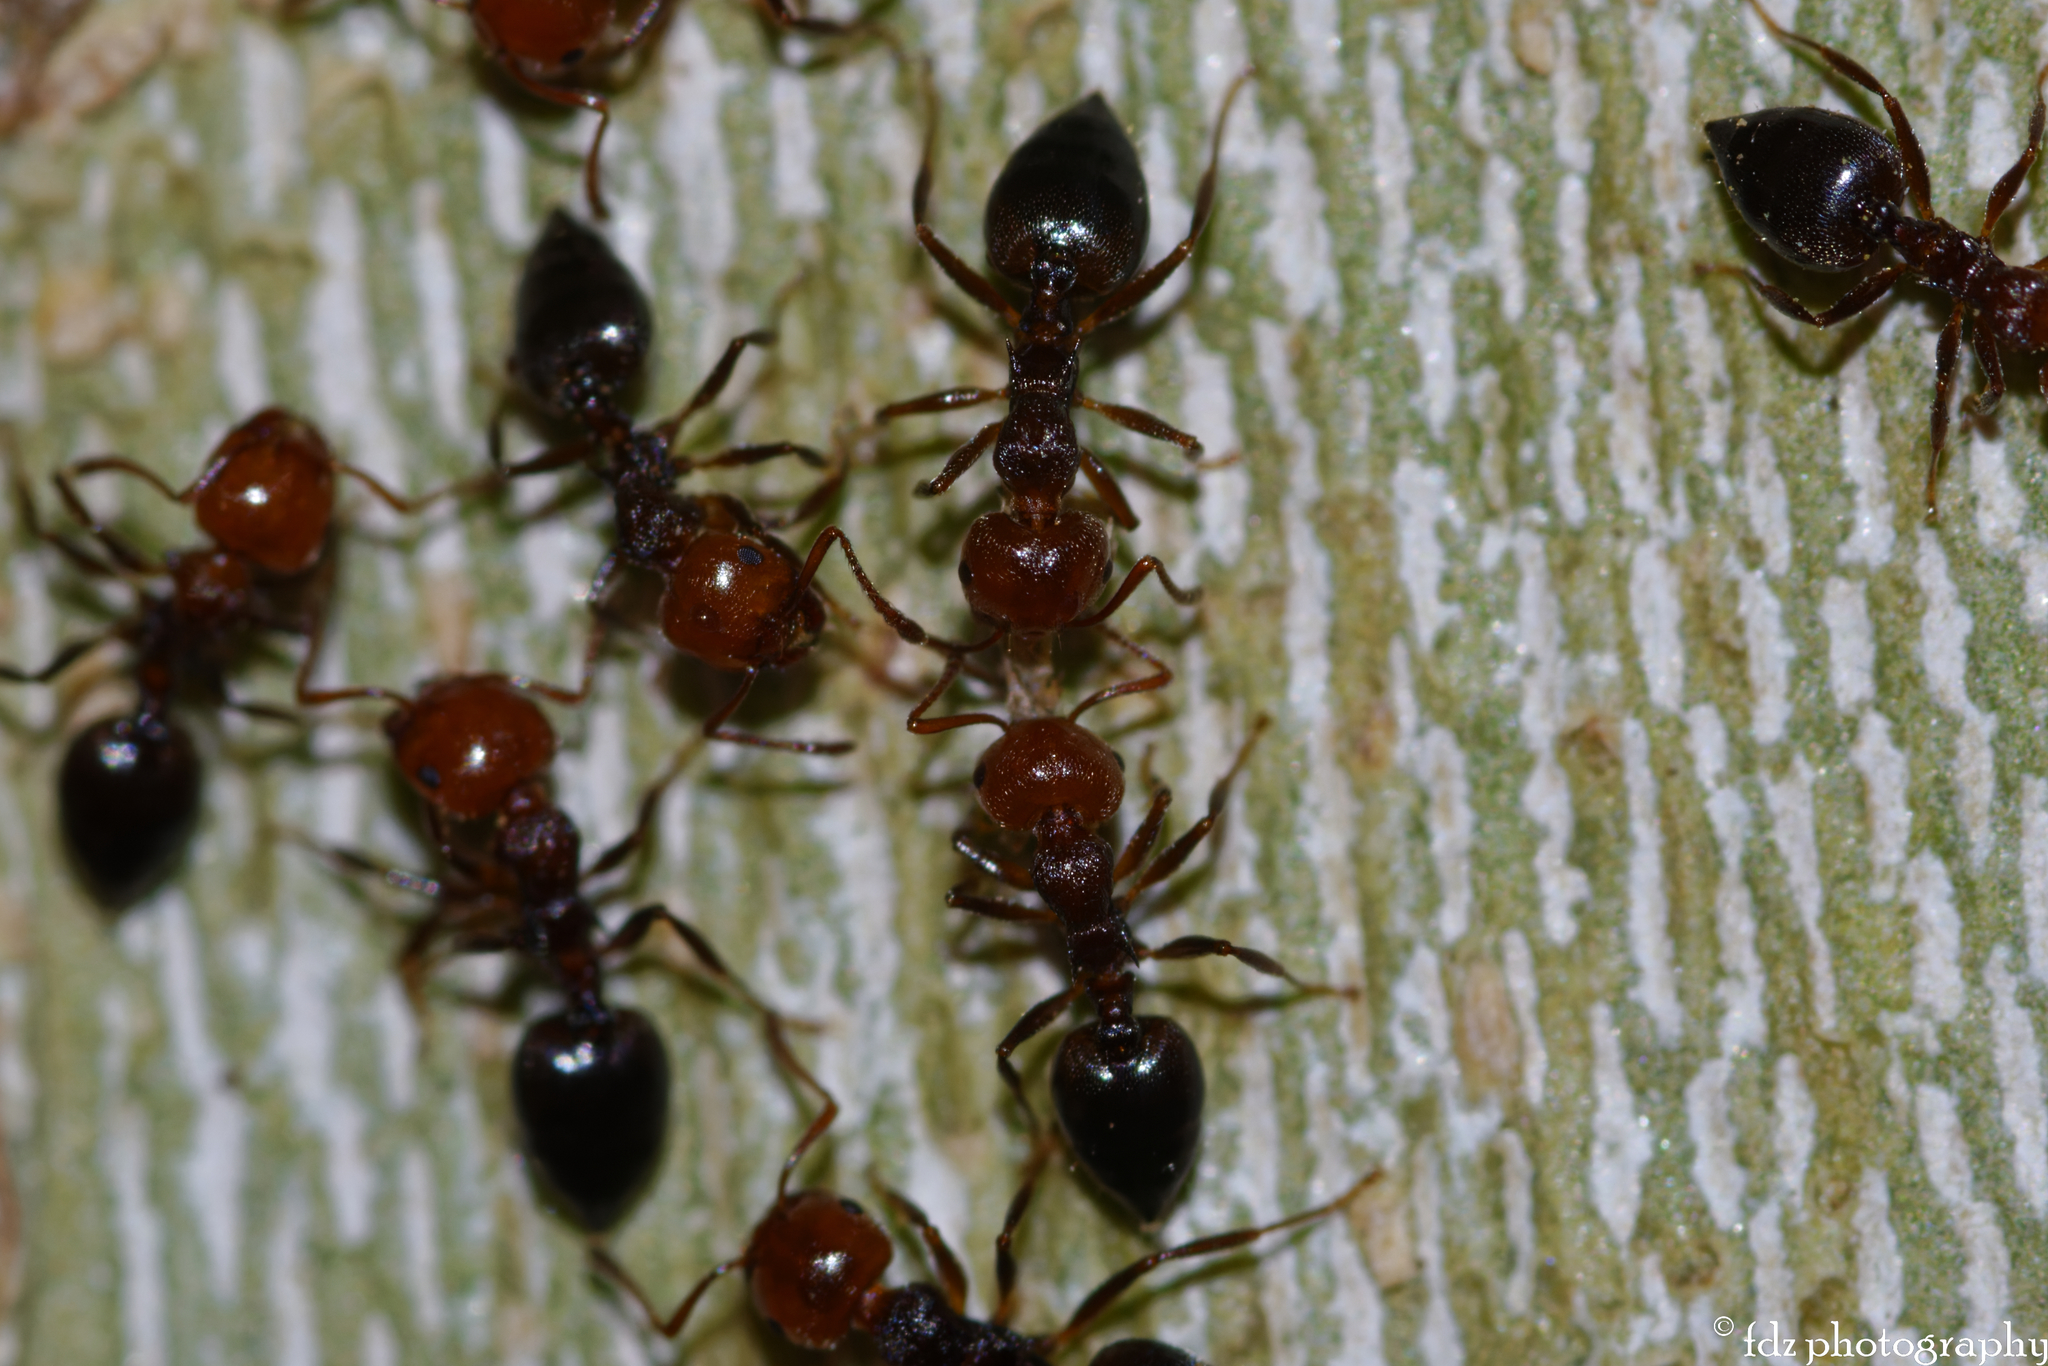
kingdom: Animalia
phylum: Arthropoda
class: Insecta
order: Hymenoptera
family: Formicidae
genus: Crematogaster
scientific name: Crematogaster scutellaris
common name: Fourmi du liège
